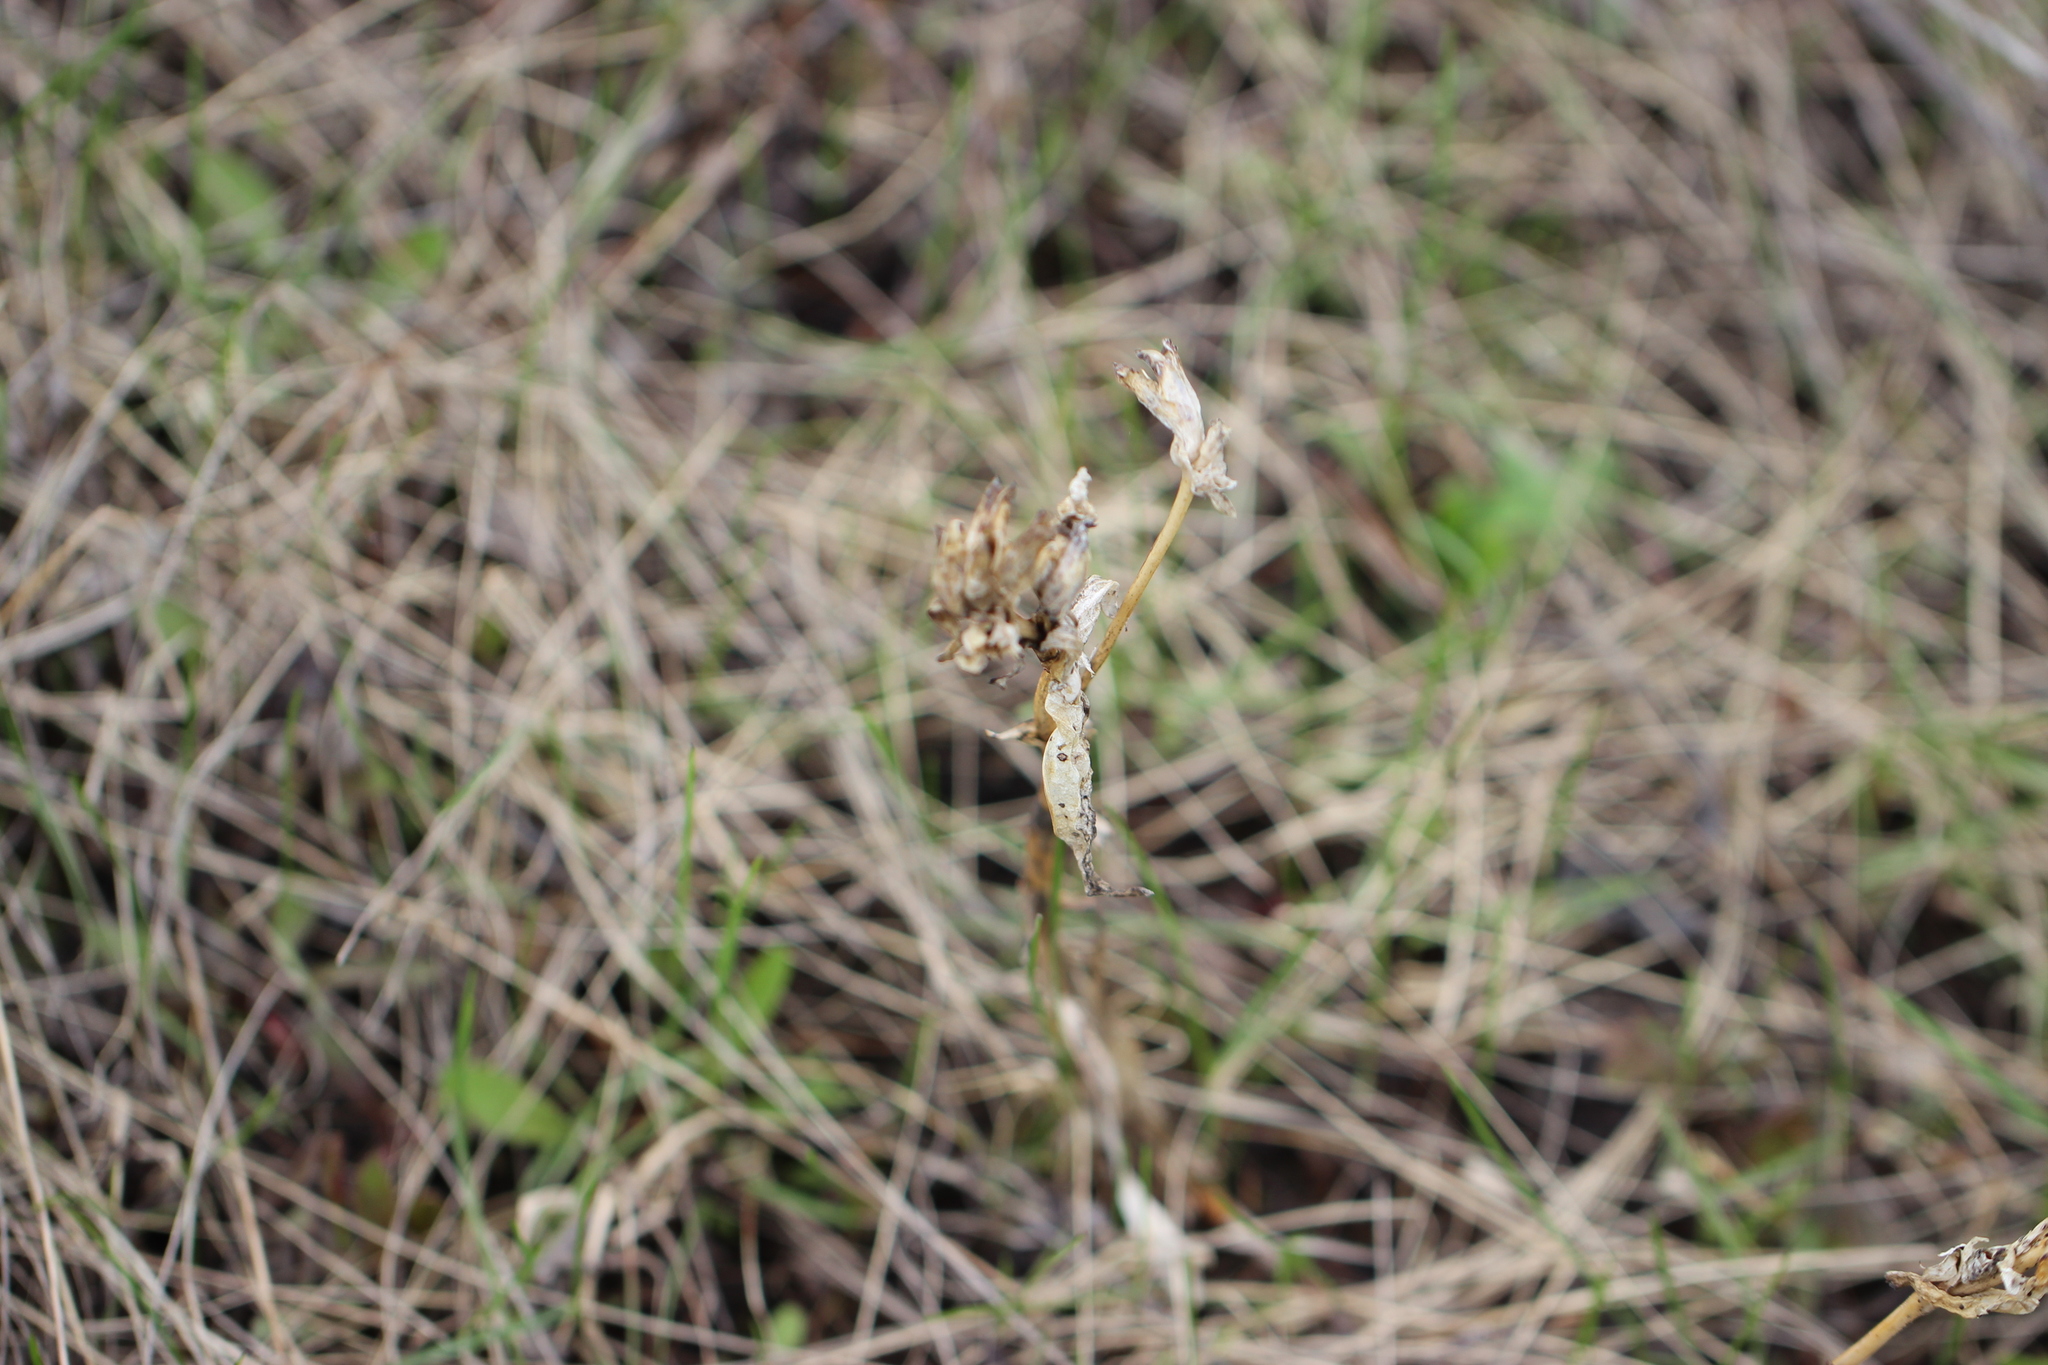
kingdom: Plantae
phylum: Tracheophyta
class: Magnoliopsida
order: Gentianales
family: Gentianaceae
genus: Gentiana
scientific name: Gentiana cruciata
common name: Cross gentian
